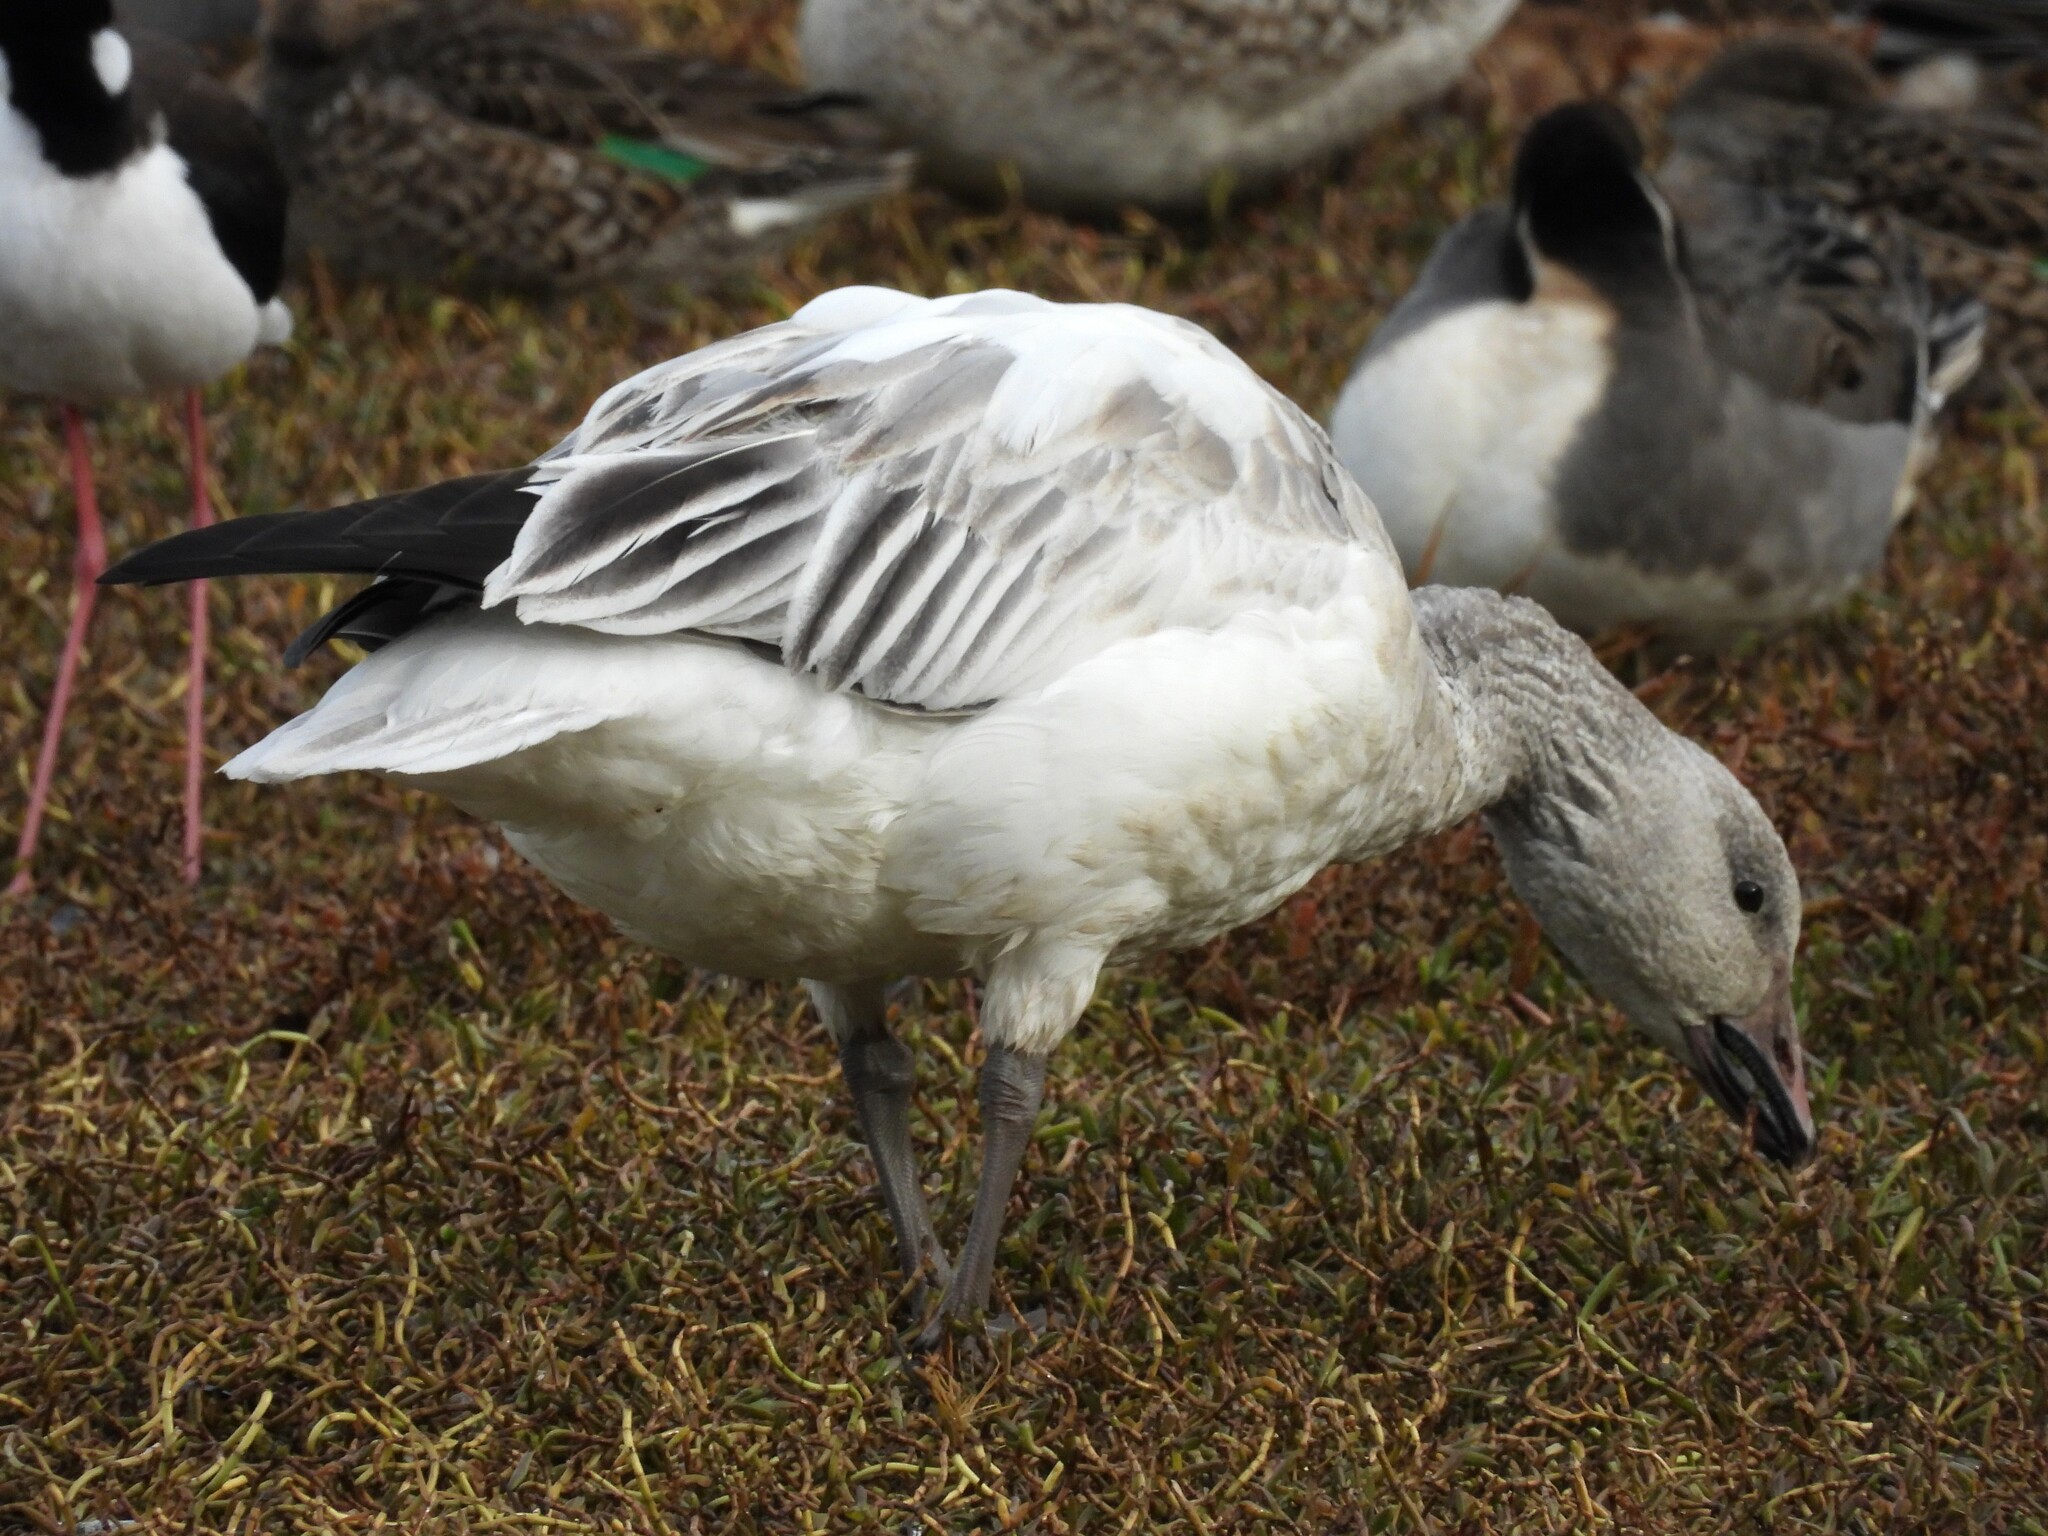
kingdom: Animalia
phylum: Chordata
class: Aves
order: Anseriformes
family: Anatidae
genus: Anser
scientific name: Anser caerulescens
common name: Snow goose
